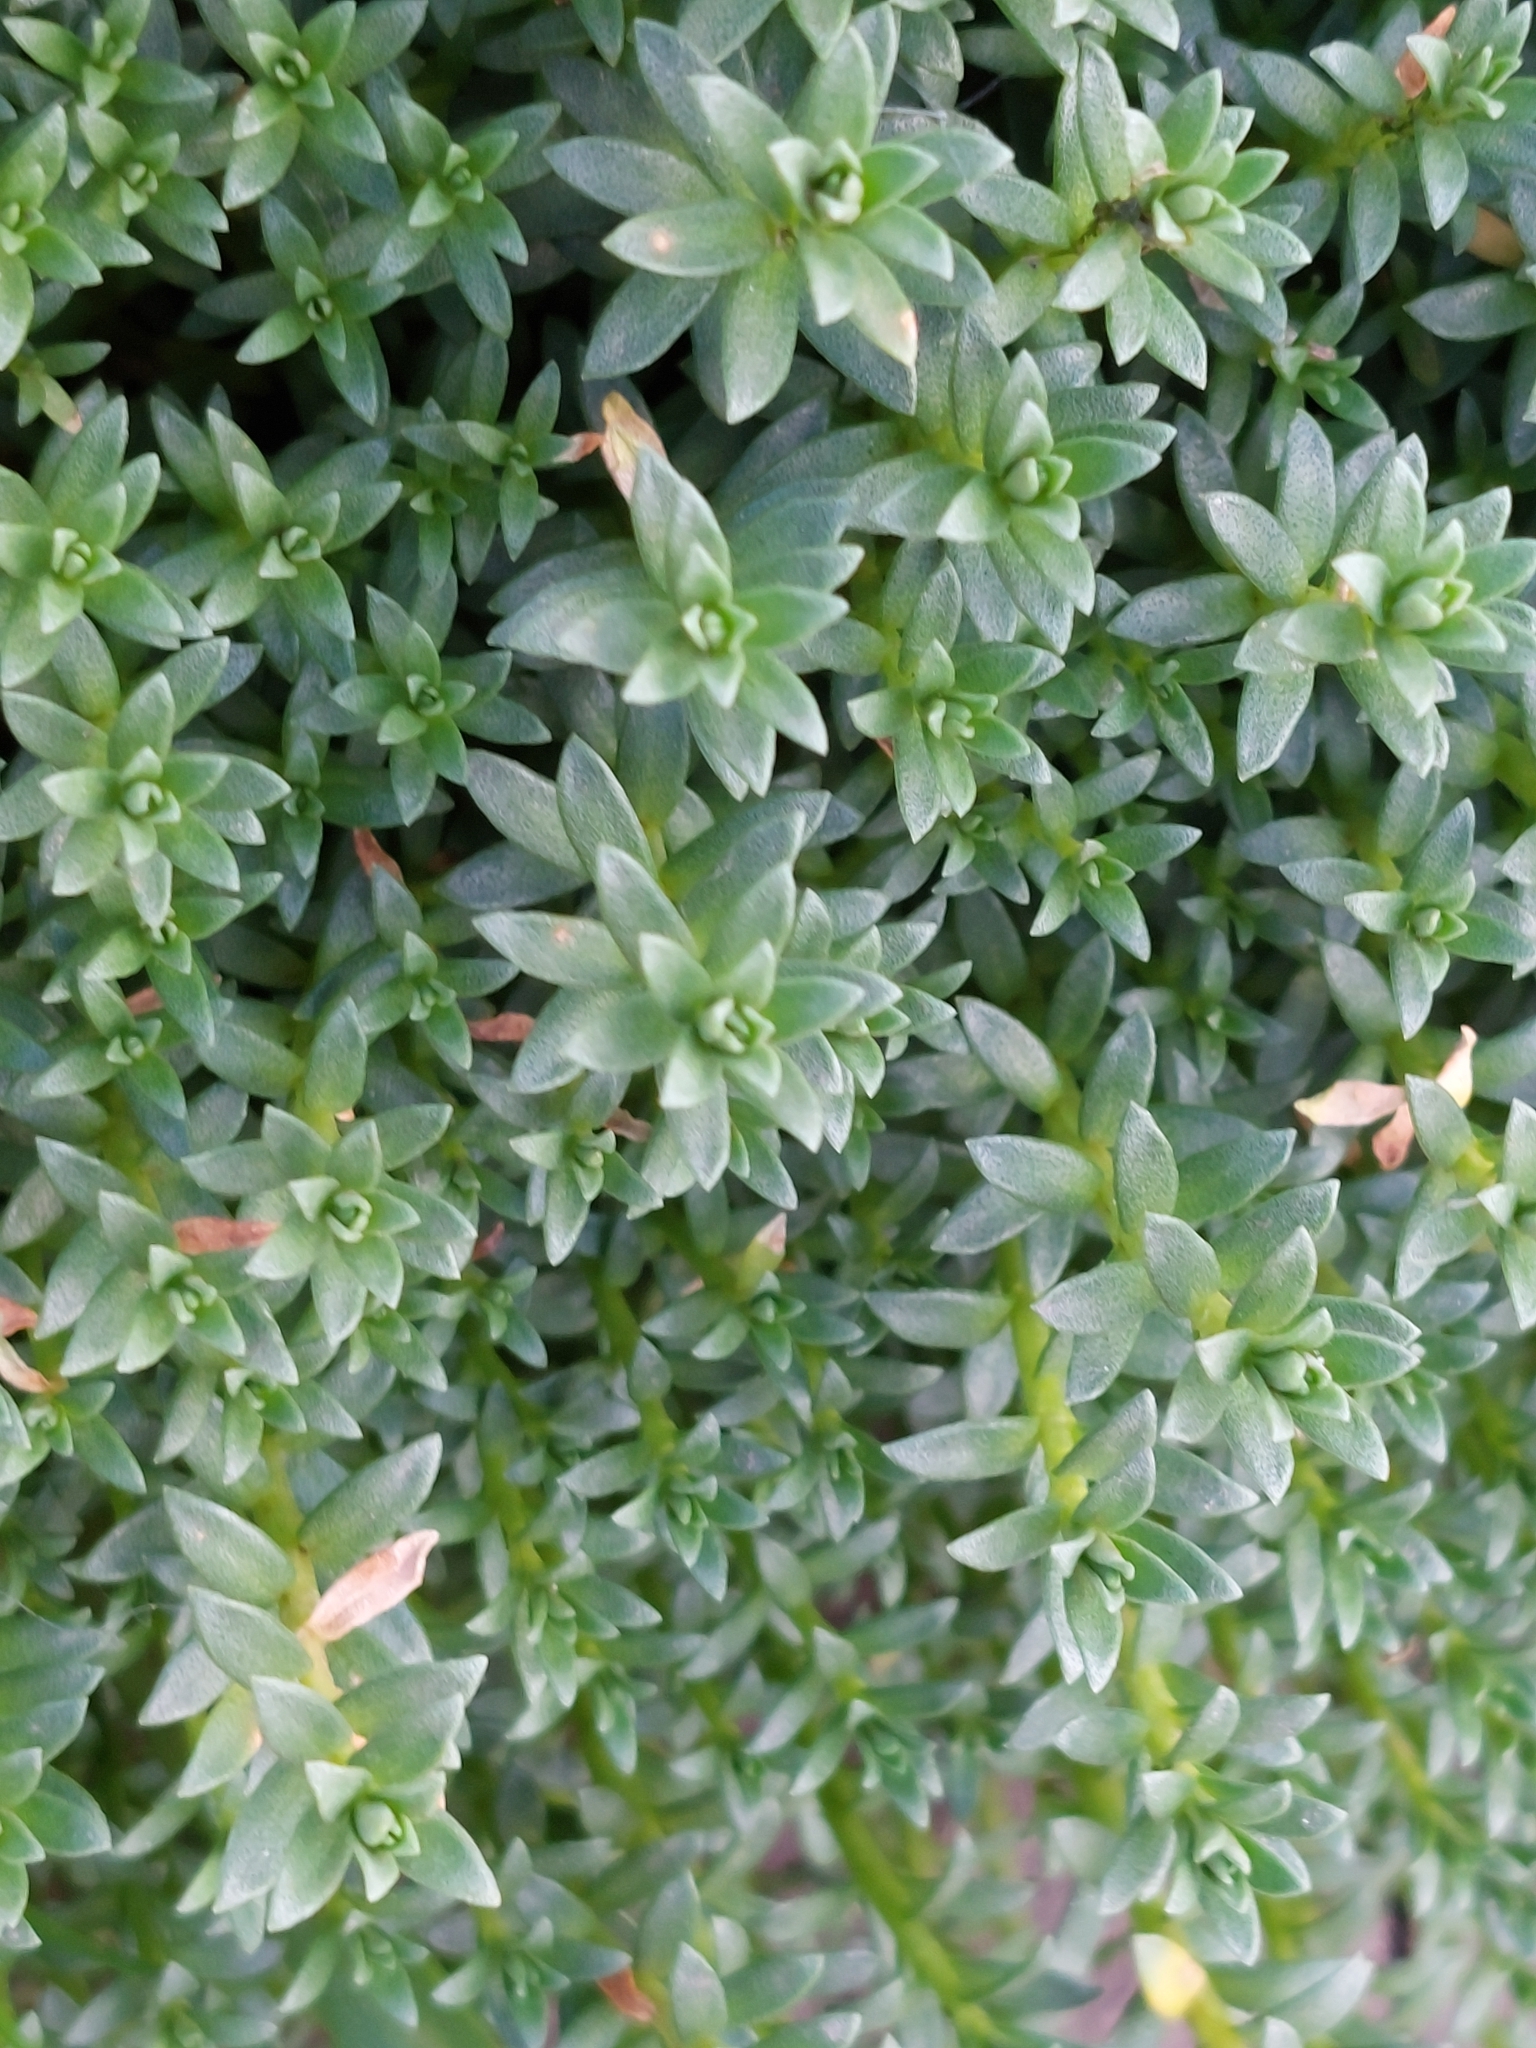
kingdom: Plantae
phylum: Tracheophyta
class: Magnoliopsida
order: Ericales
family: Primulaceae
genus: Lysimachia
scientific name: Lysimachia maritima
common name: Sea milkwort
